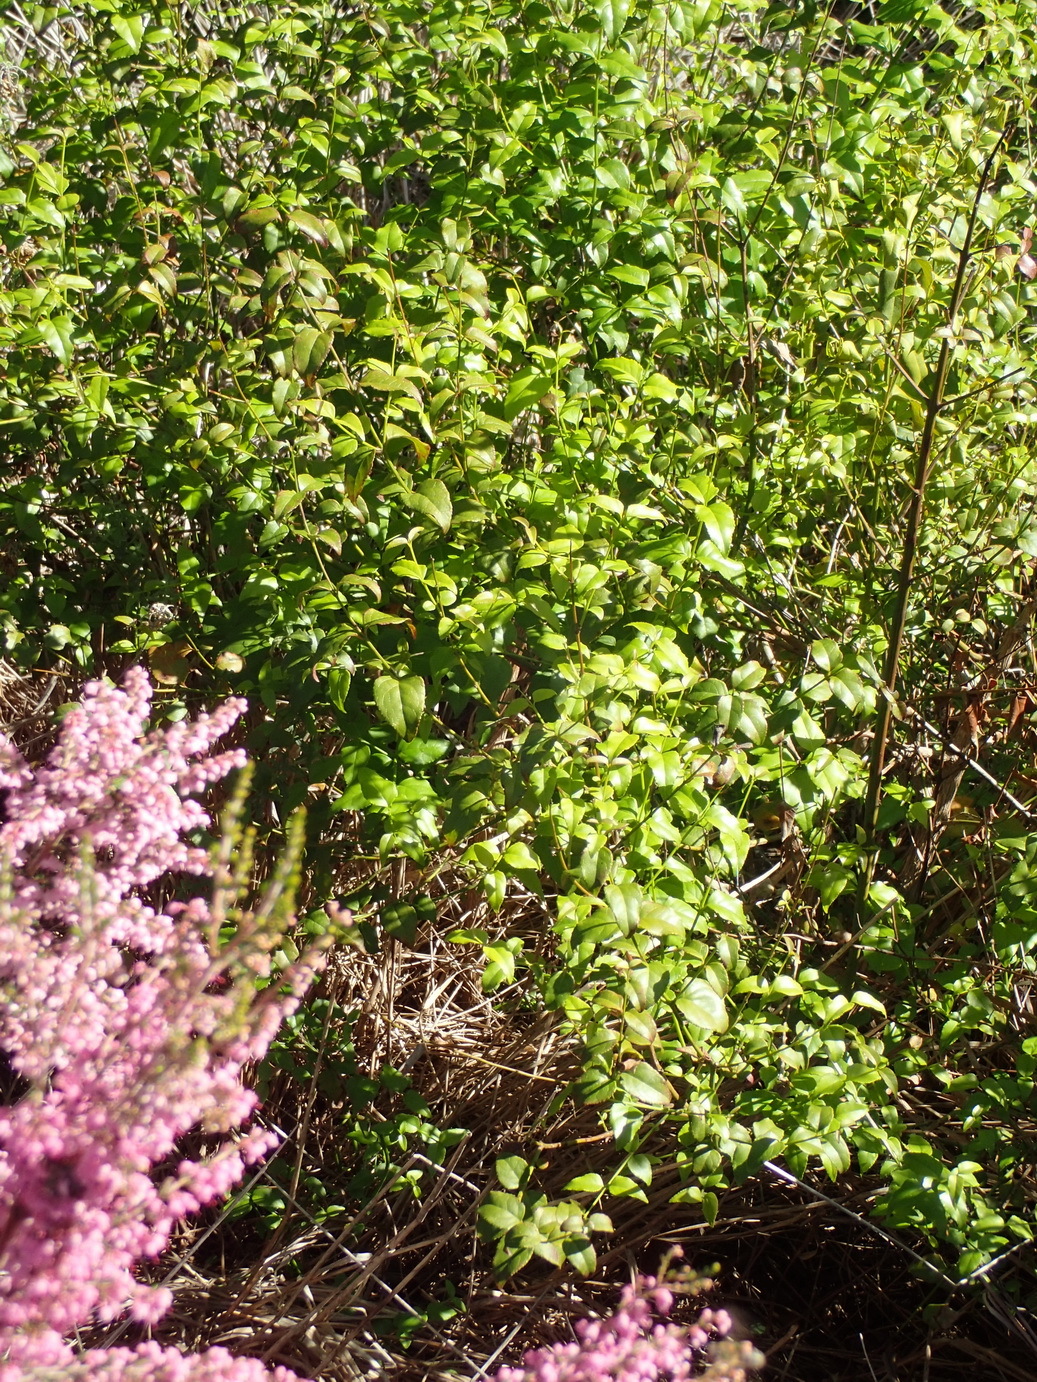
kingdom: Plantae
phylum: Tracheophyta
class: Magnoliopsida
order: Lamiales
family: Stilbaceae
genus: Halleria
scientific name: Halleria lucida
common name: Tree fuschia
